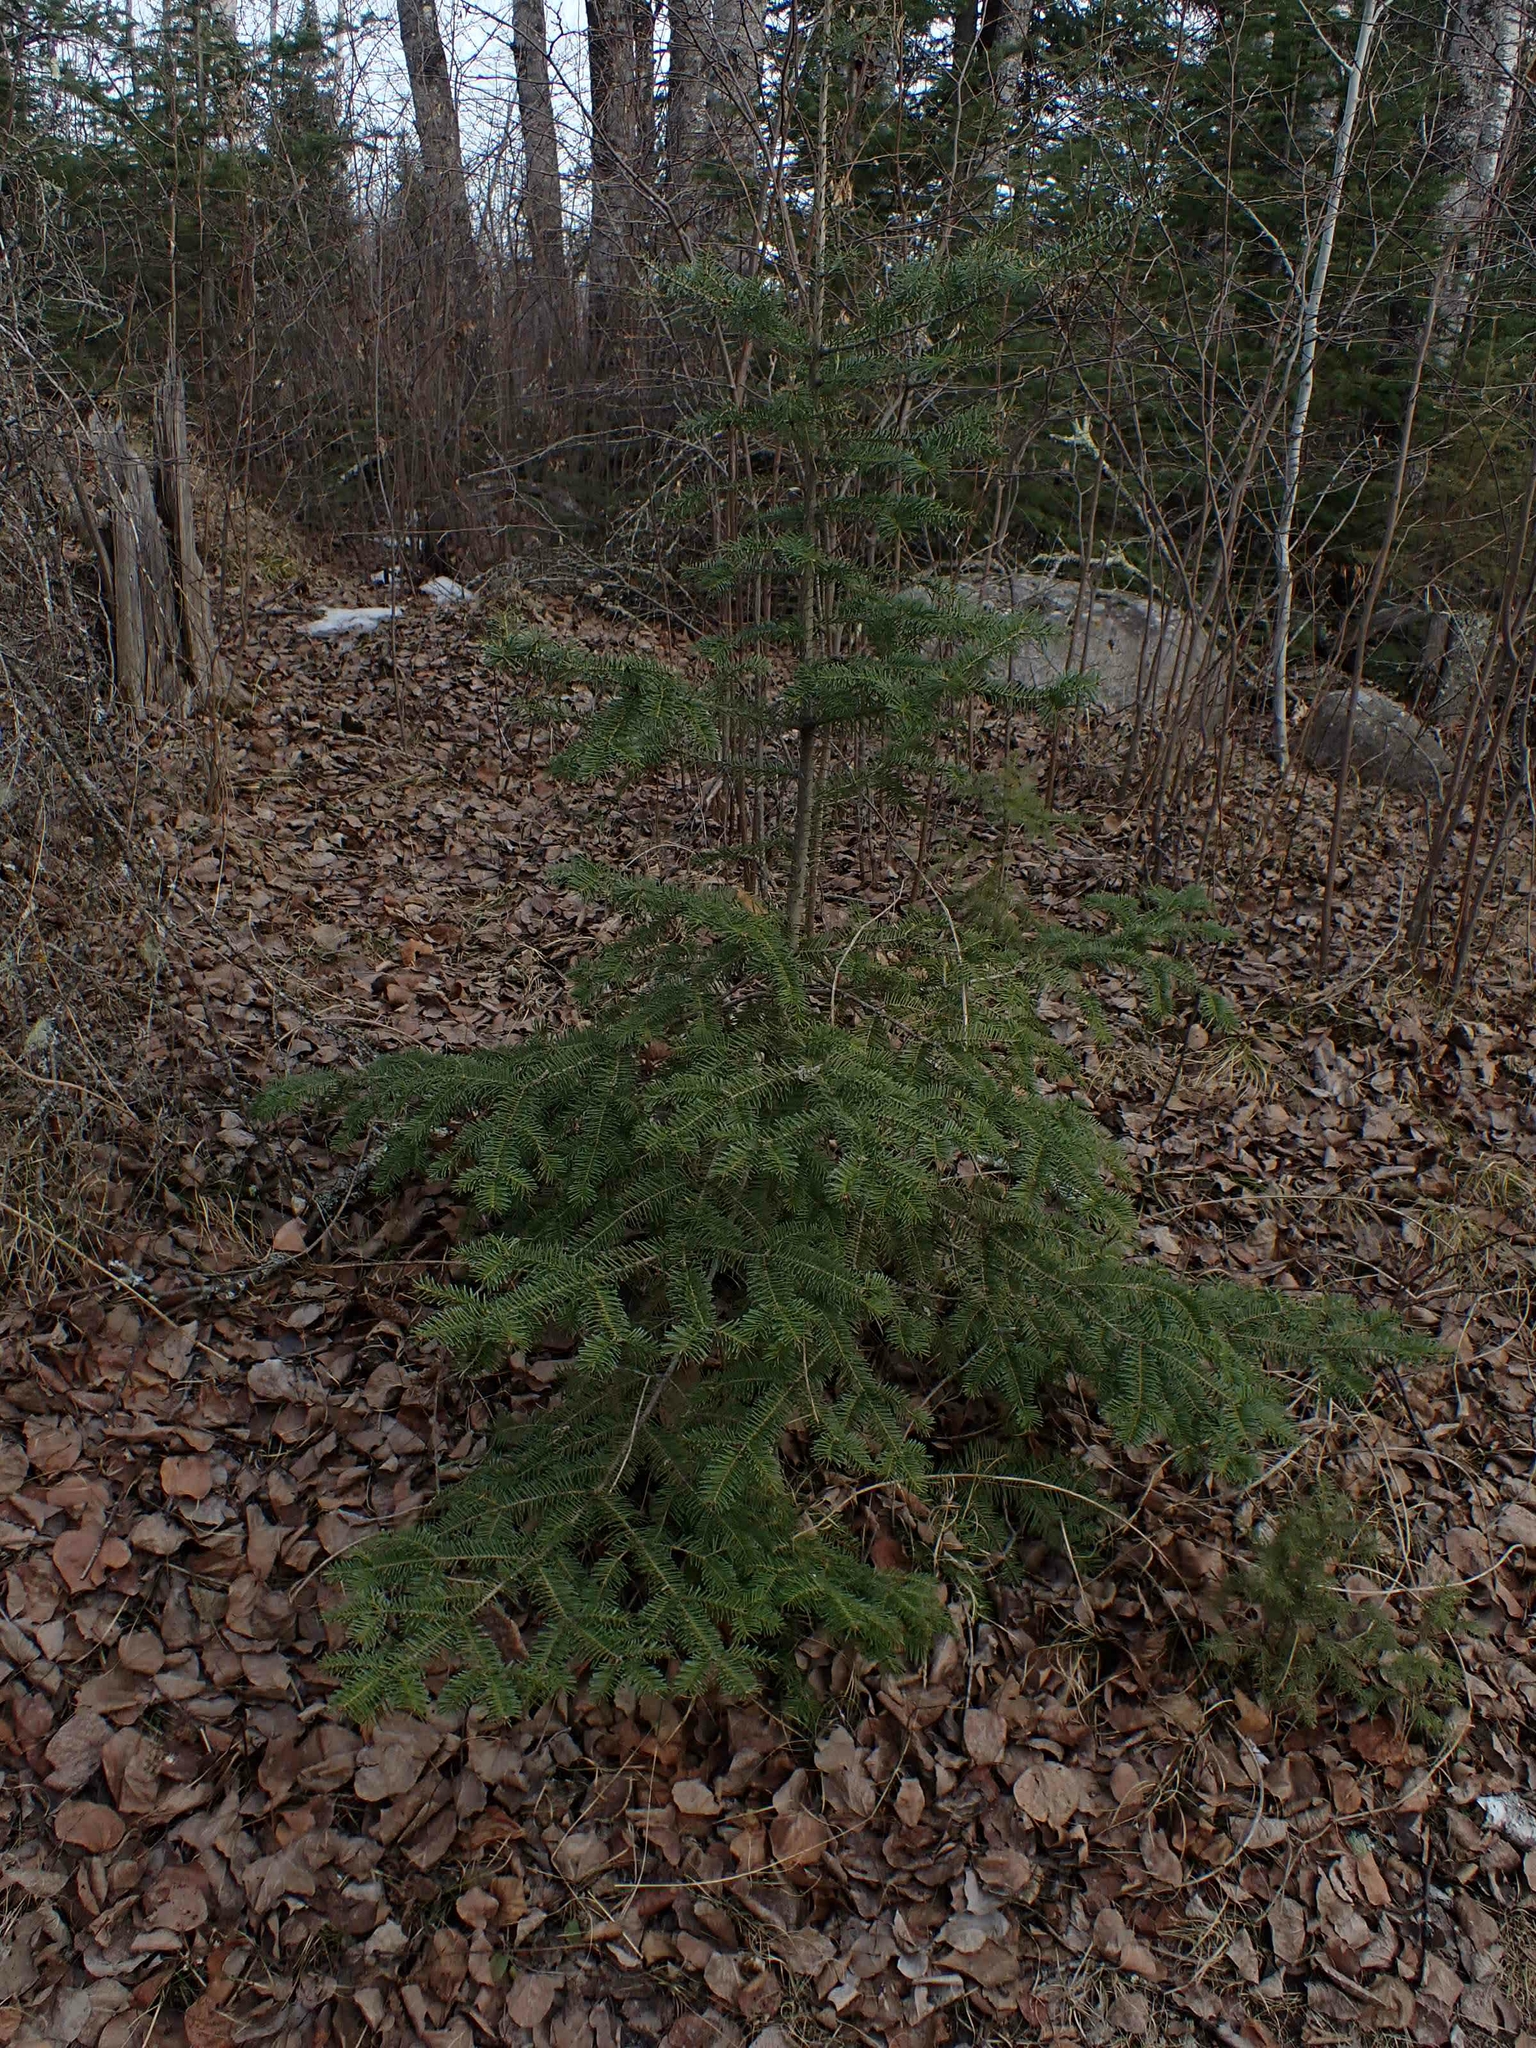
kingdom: Plantae
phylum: Tracheophyta
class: Pinopsida
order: Pinales
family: Pinaceae
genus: Abies
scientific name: Abies balsamea
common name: Balsam fir
